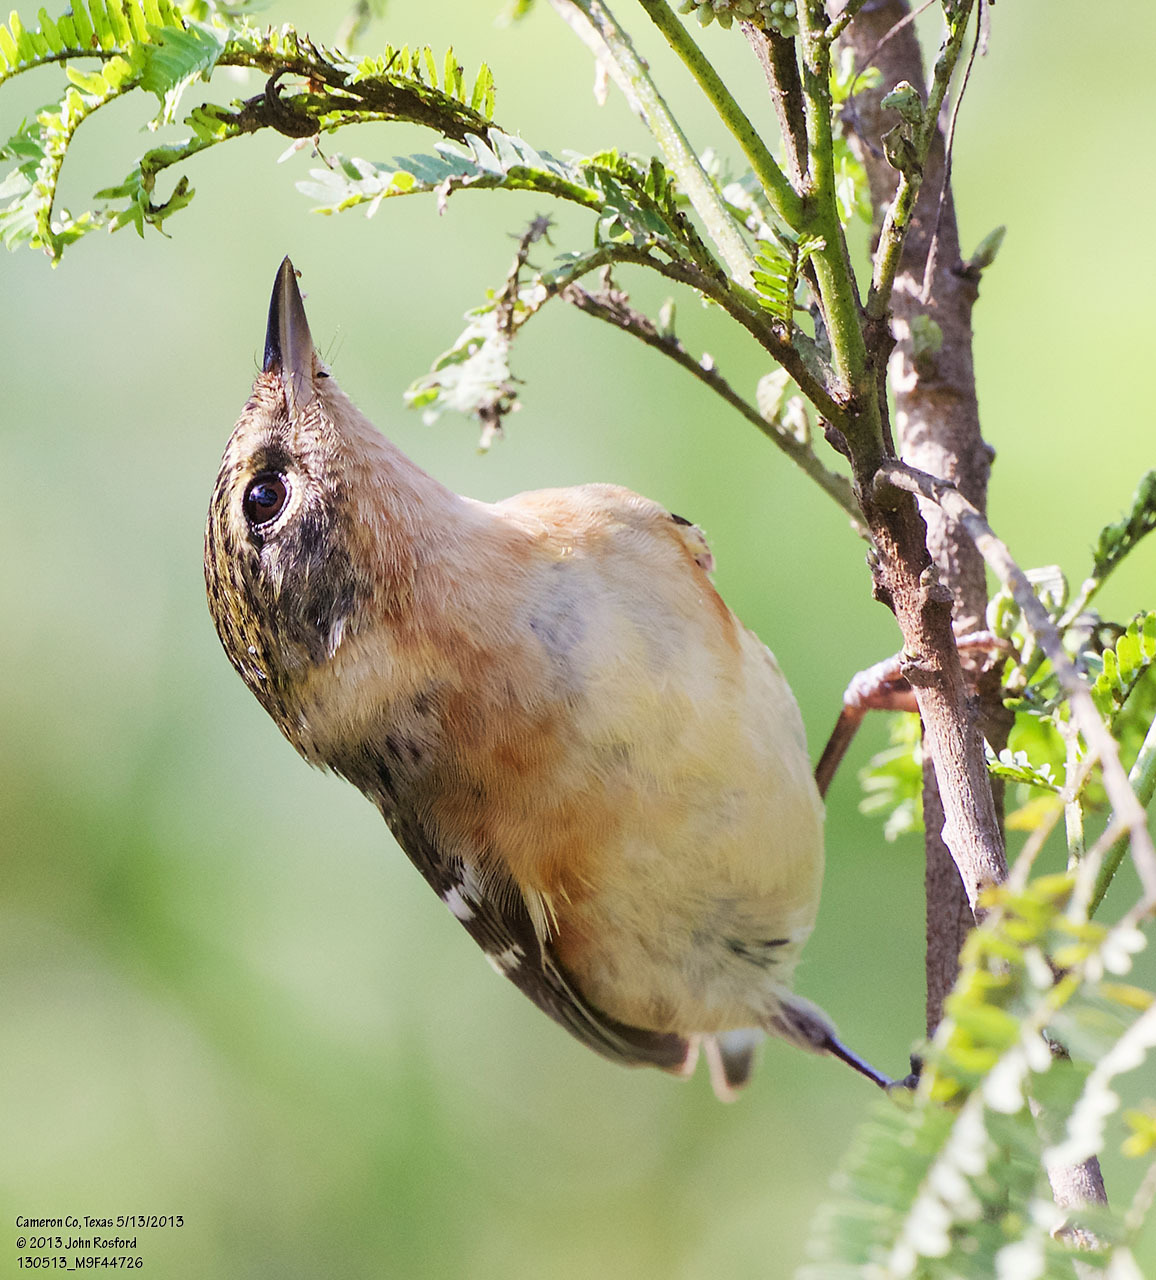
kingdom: Animalia
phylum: Chordata
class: Aves
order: Passeriformes
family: Parulidae
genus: Setophaga
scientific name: Setophaga castanea
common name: Bay-breasted warbler
